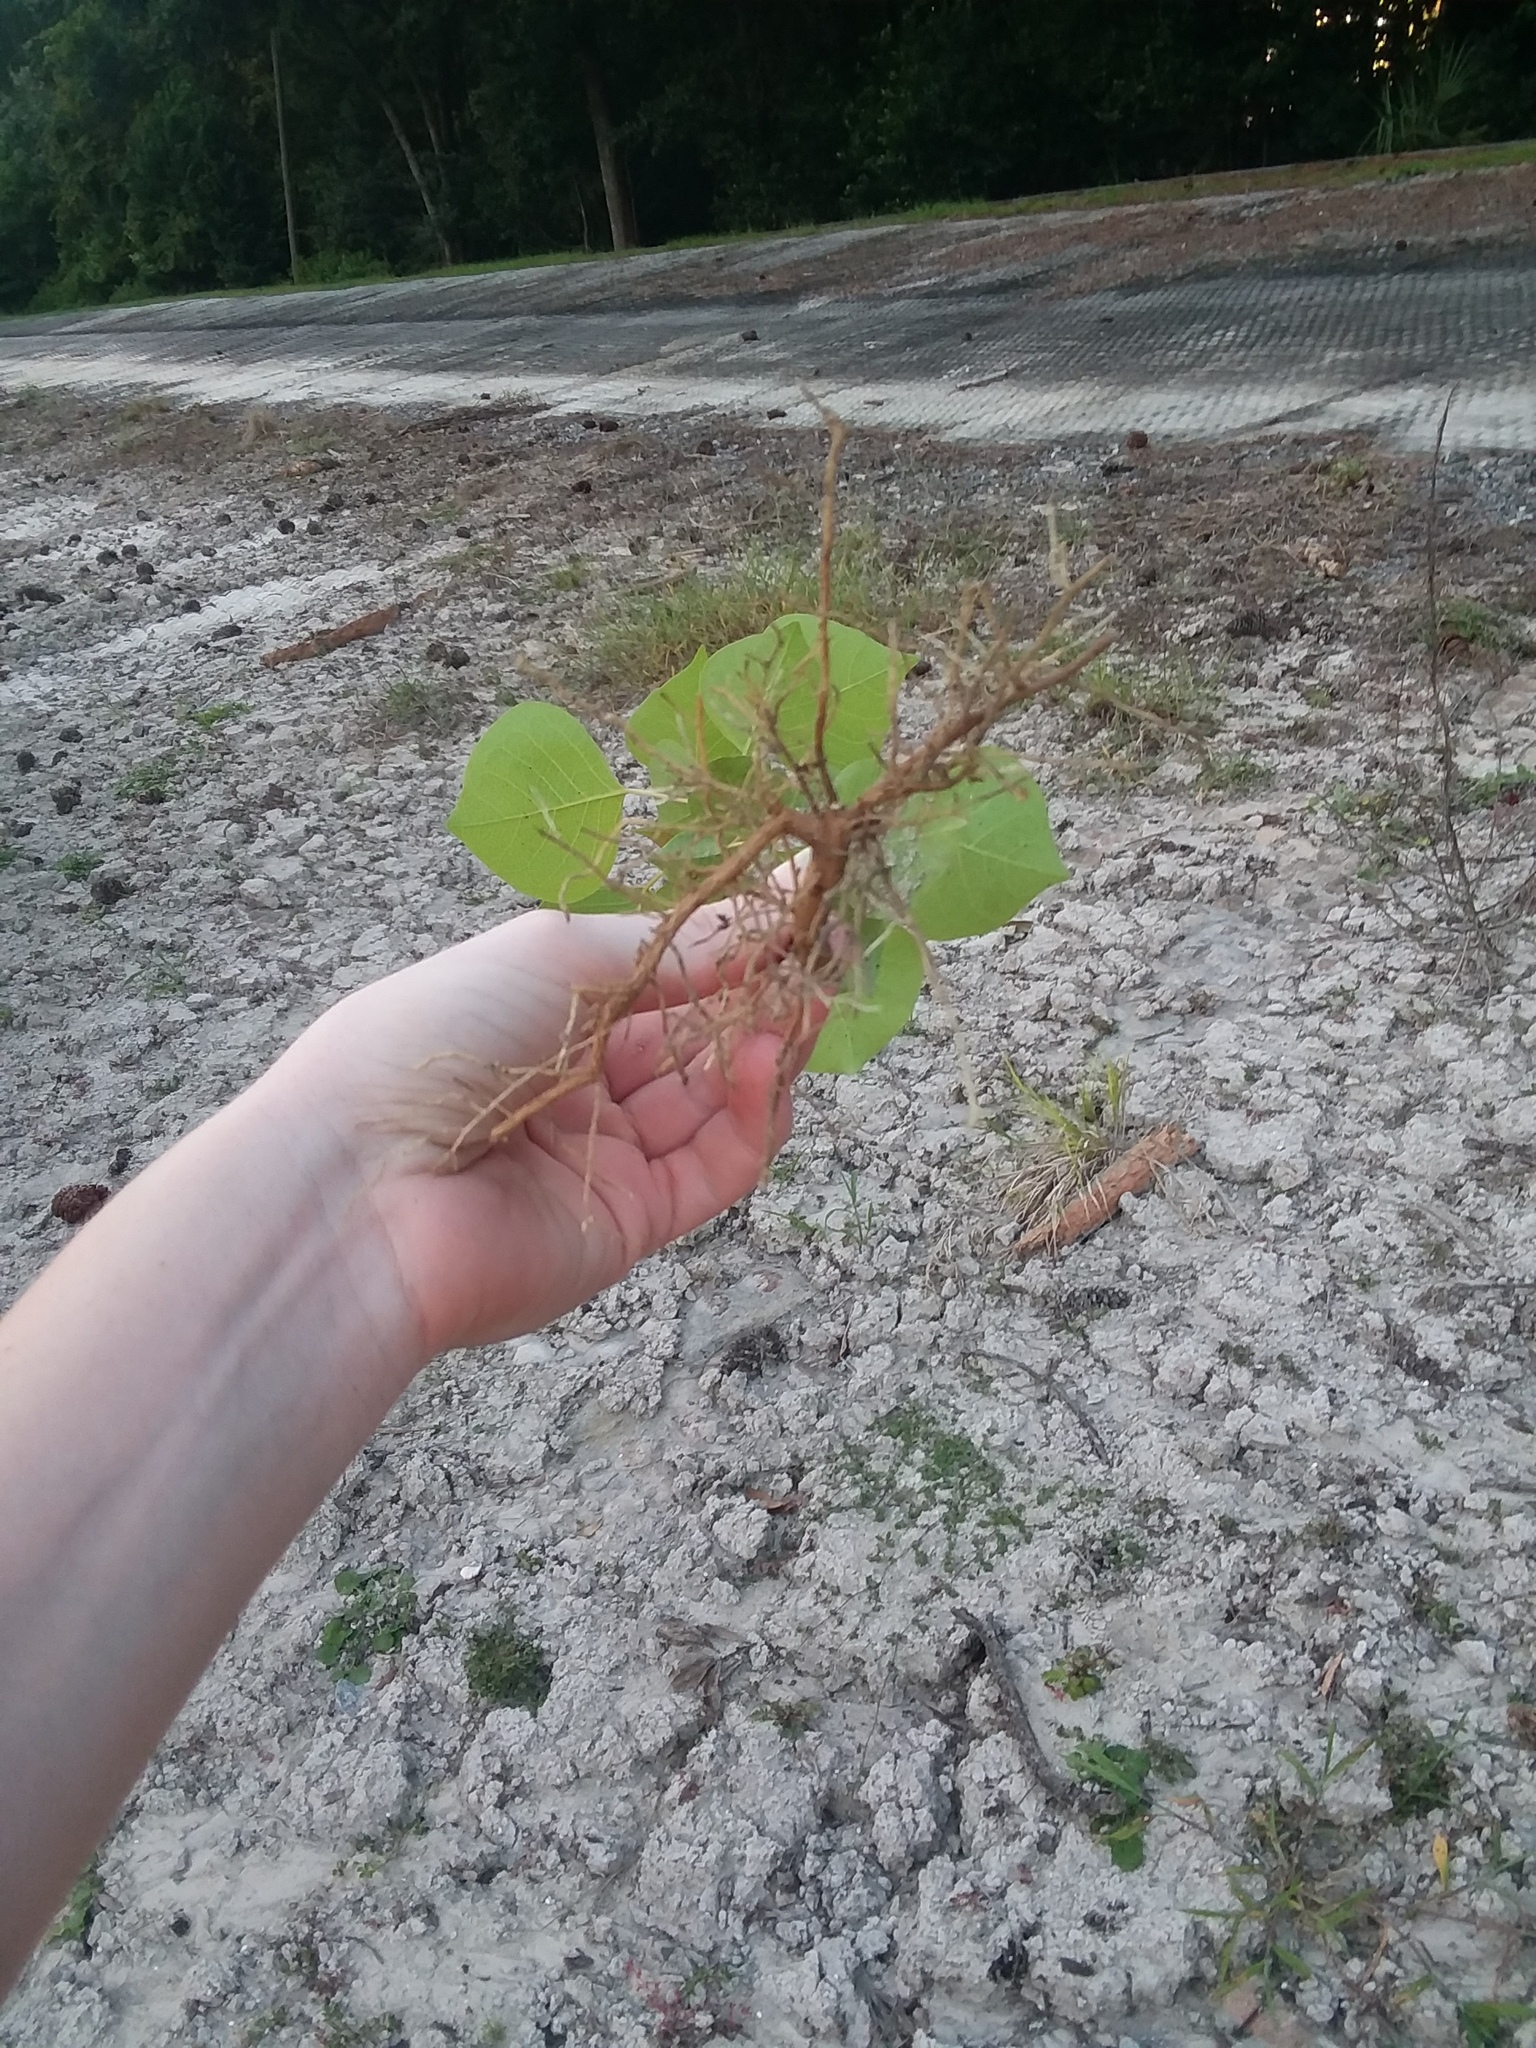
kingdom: Plantae
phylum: Tracheophyta
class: Magnoliopsida
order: Malpighiales
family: Euphorbiaceae
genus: Triadica
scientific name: Triadica sebifera
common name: Chinese tallow
